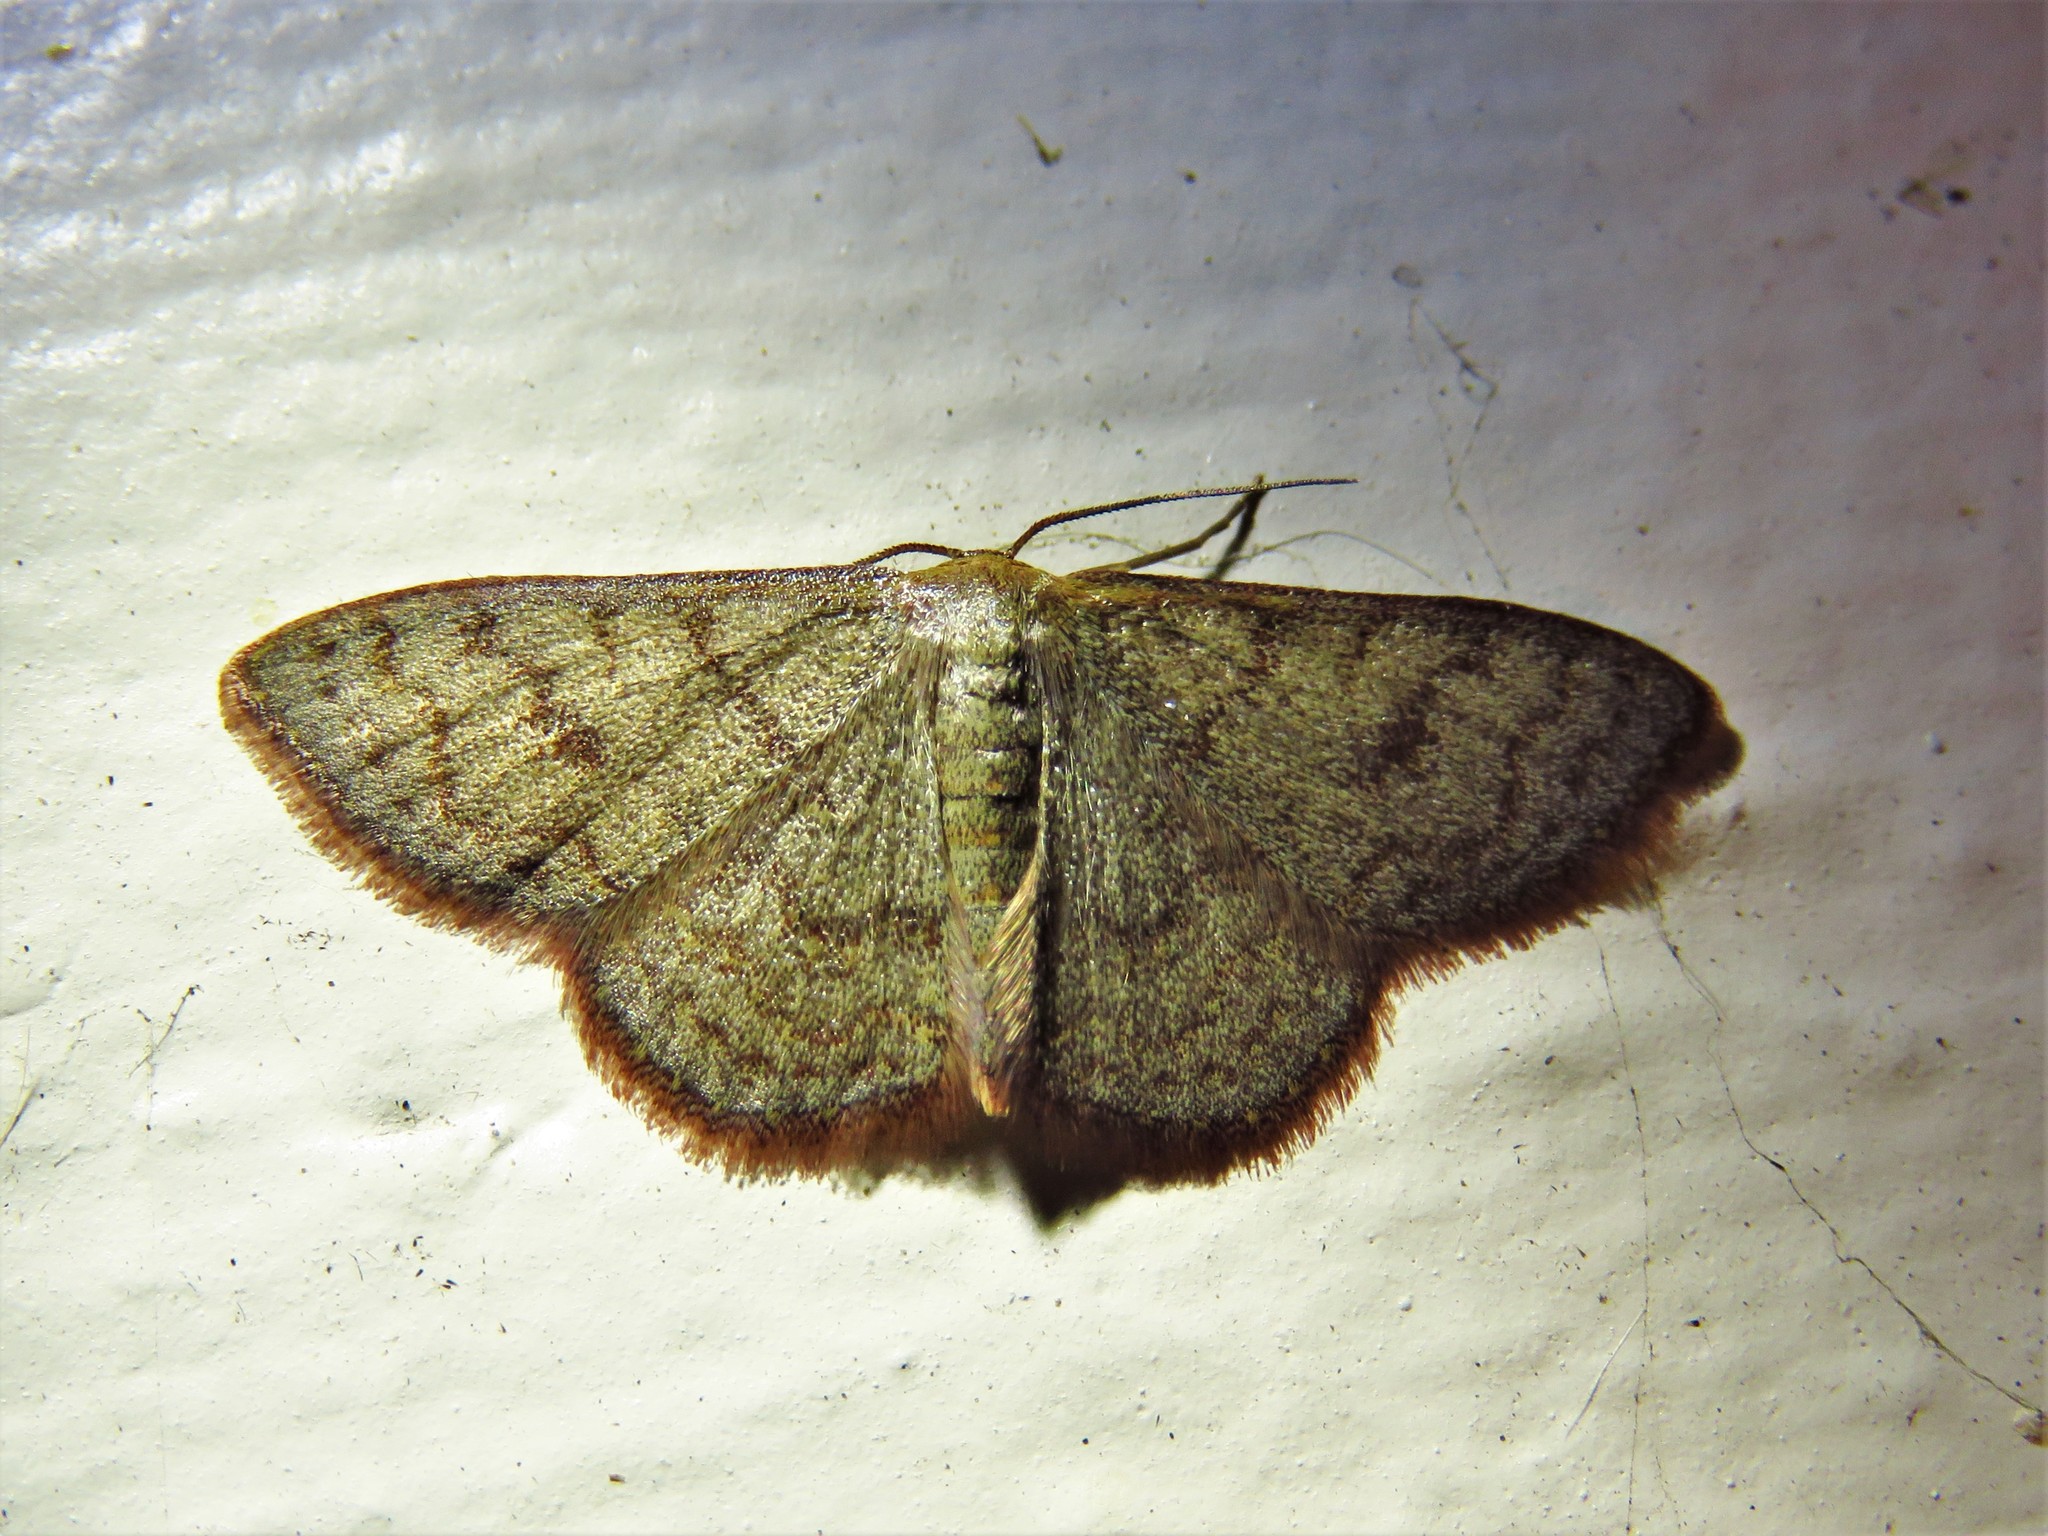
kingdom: Animalia
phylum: Arthropoda
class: Insecta
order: Lepidoptera
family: Geometridae
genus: Leptostales
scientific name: Leptostales pannaria
